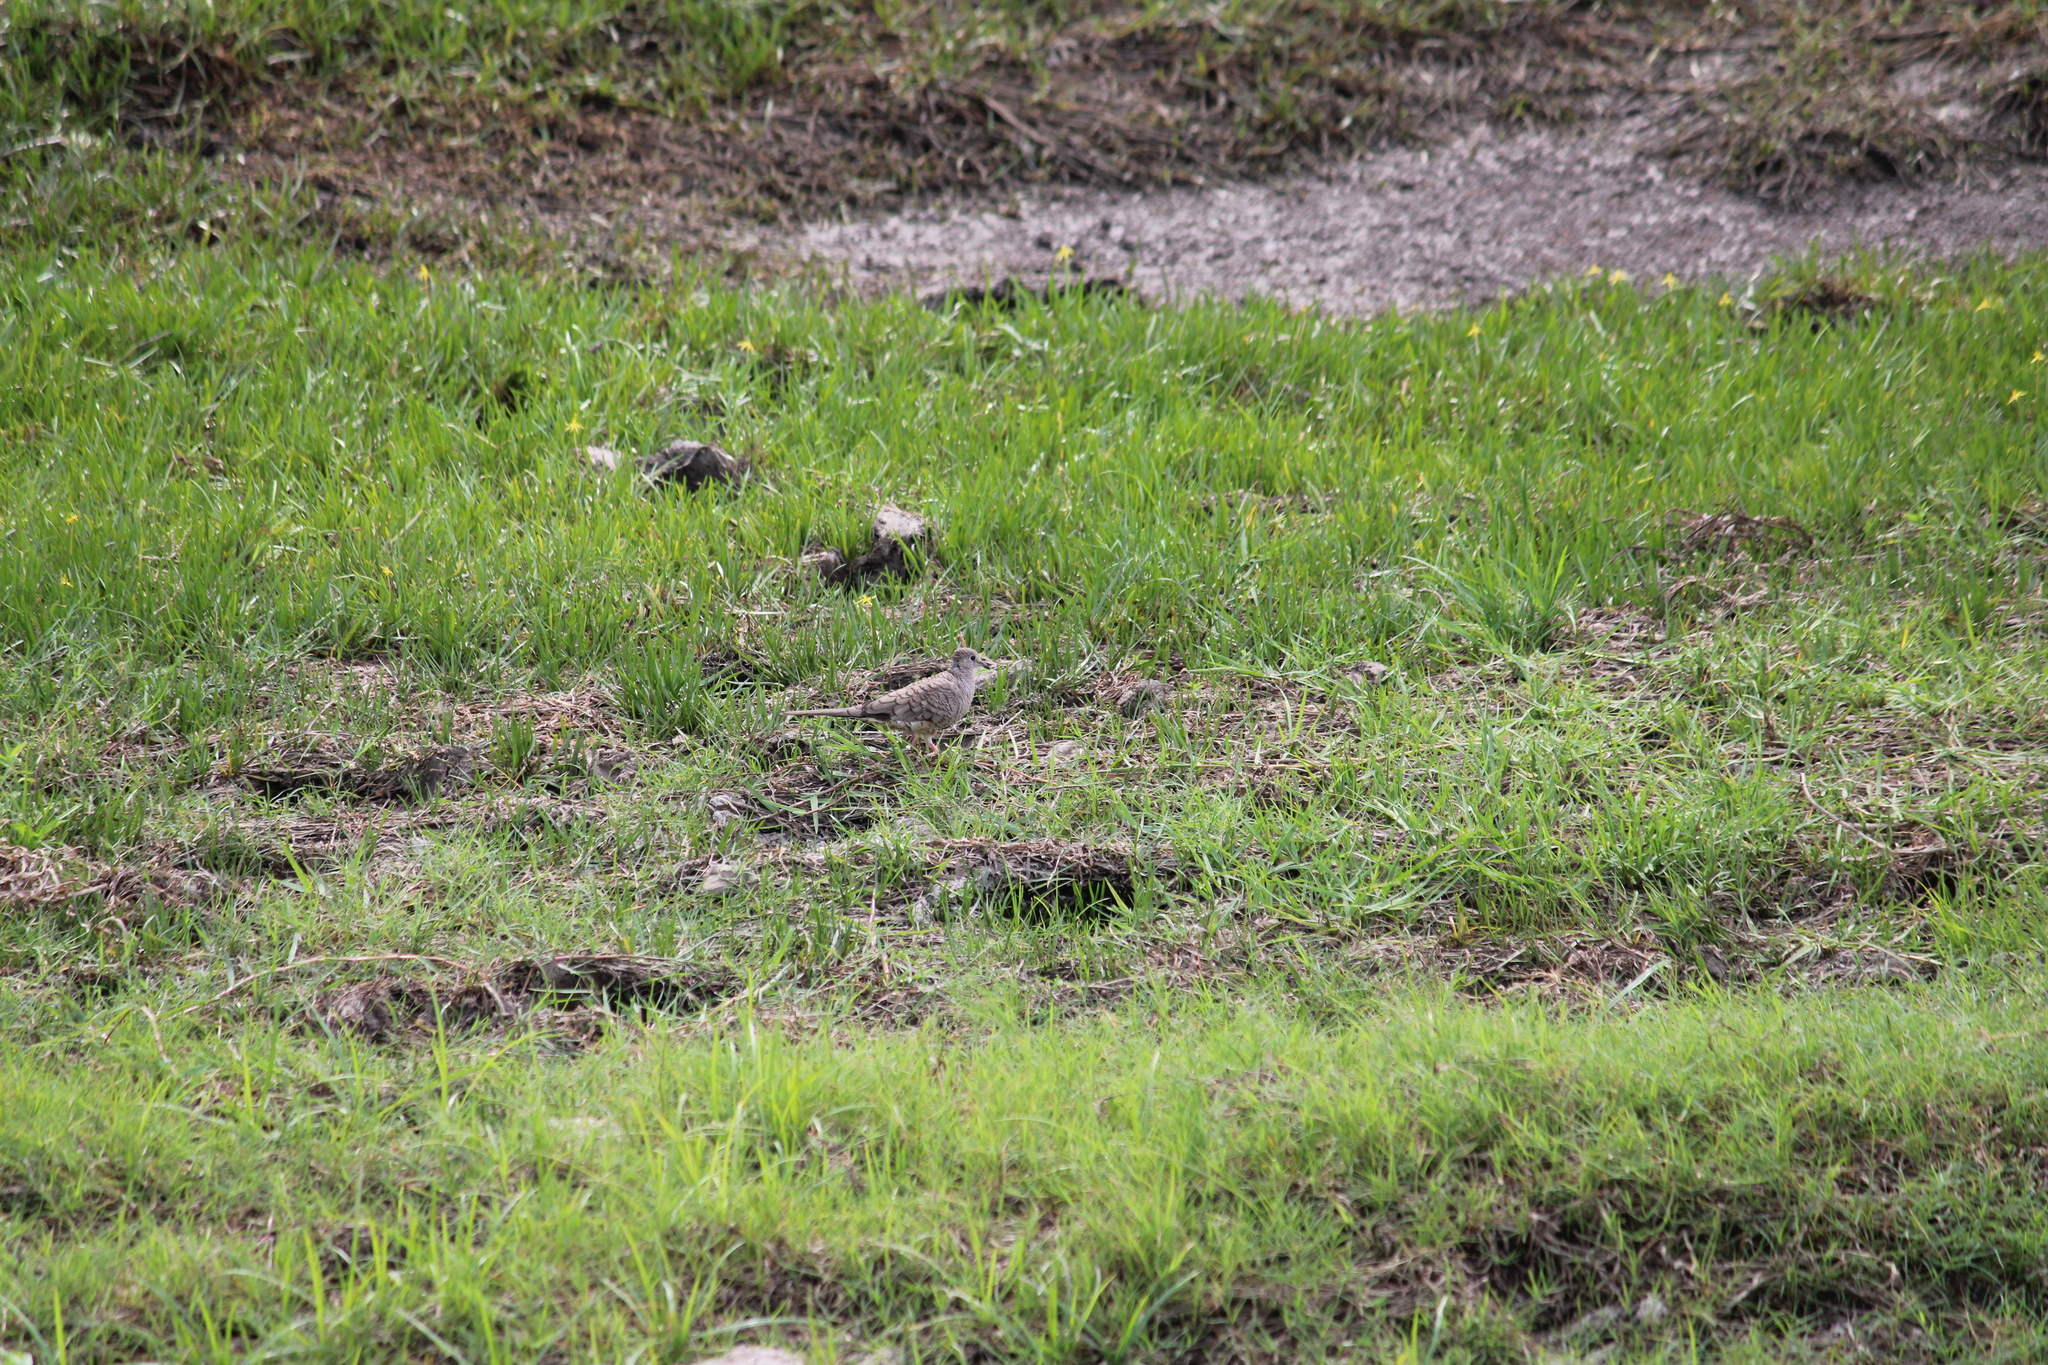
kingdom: Animalia
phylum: Chordata
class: Aves
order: Columbiformes
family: Columbidae
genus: Columbina
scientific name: Columbina inca
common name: Inca dove
